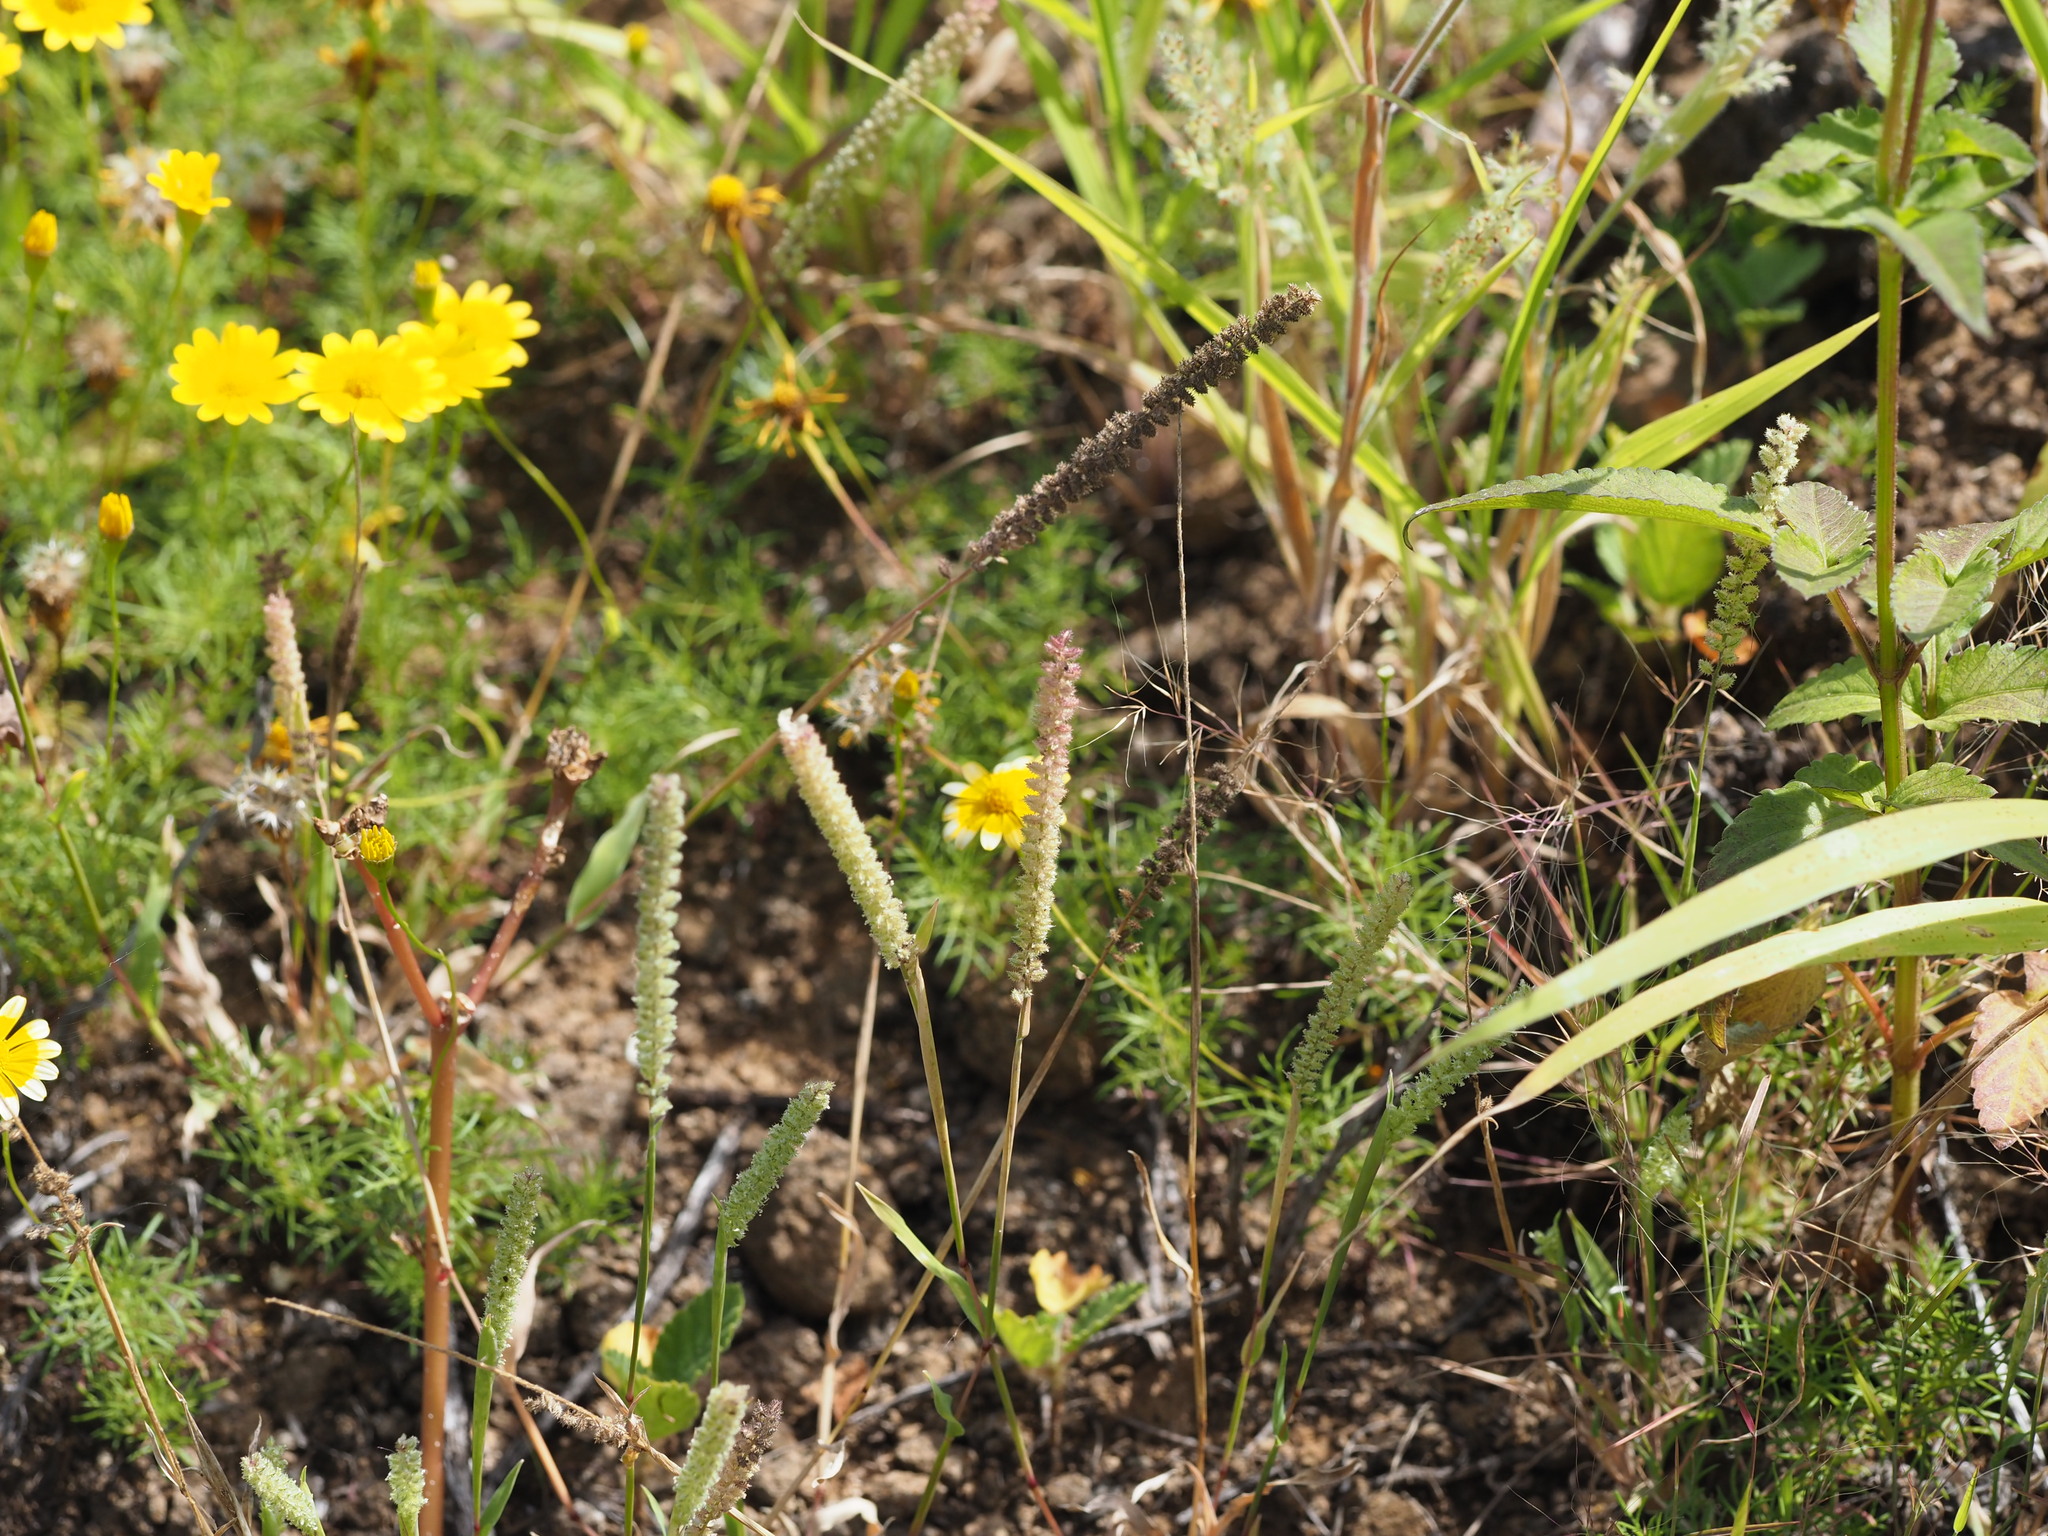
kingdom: Plantae
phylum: Tracheophyta
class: Liliopsida
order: Poales
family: Poaceae
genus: Tragus
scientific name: Tragus berteronianus
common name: African bur-grass
